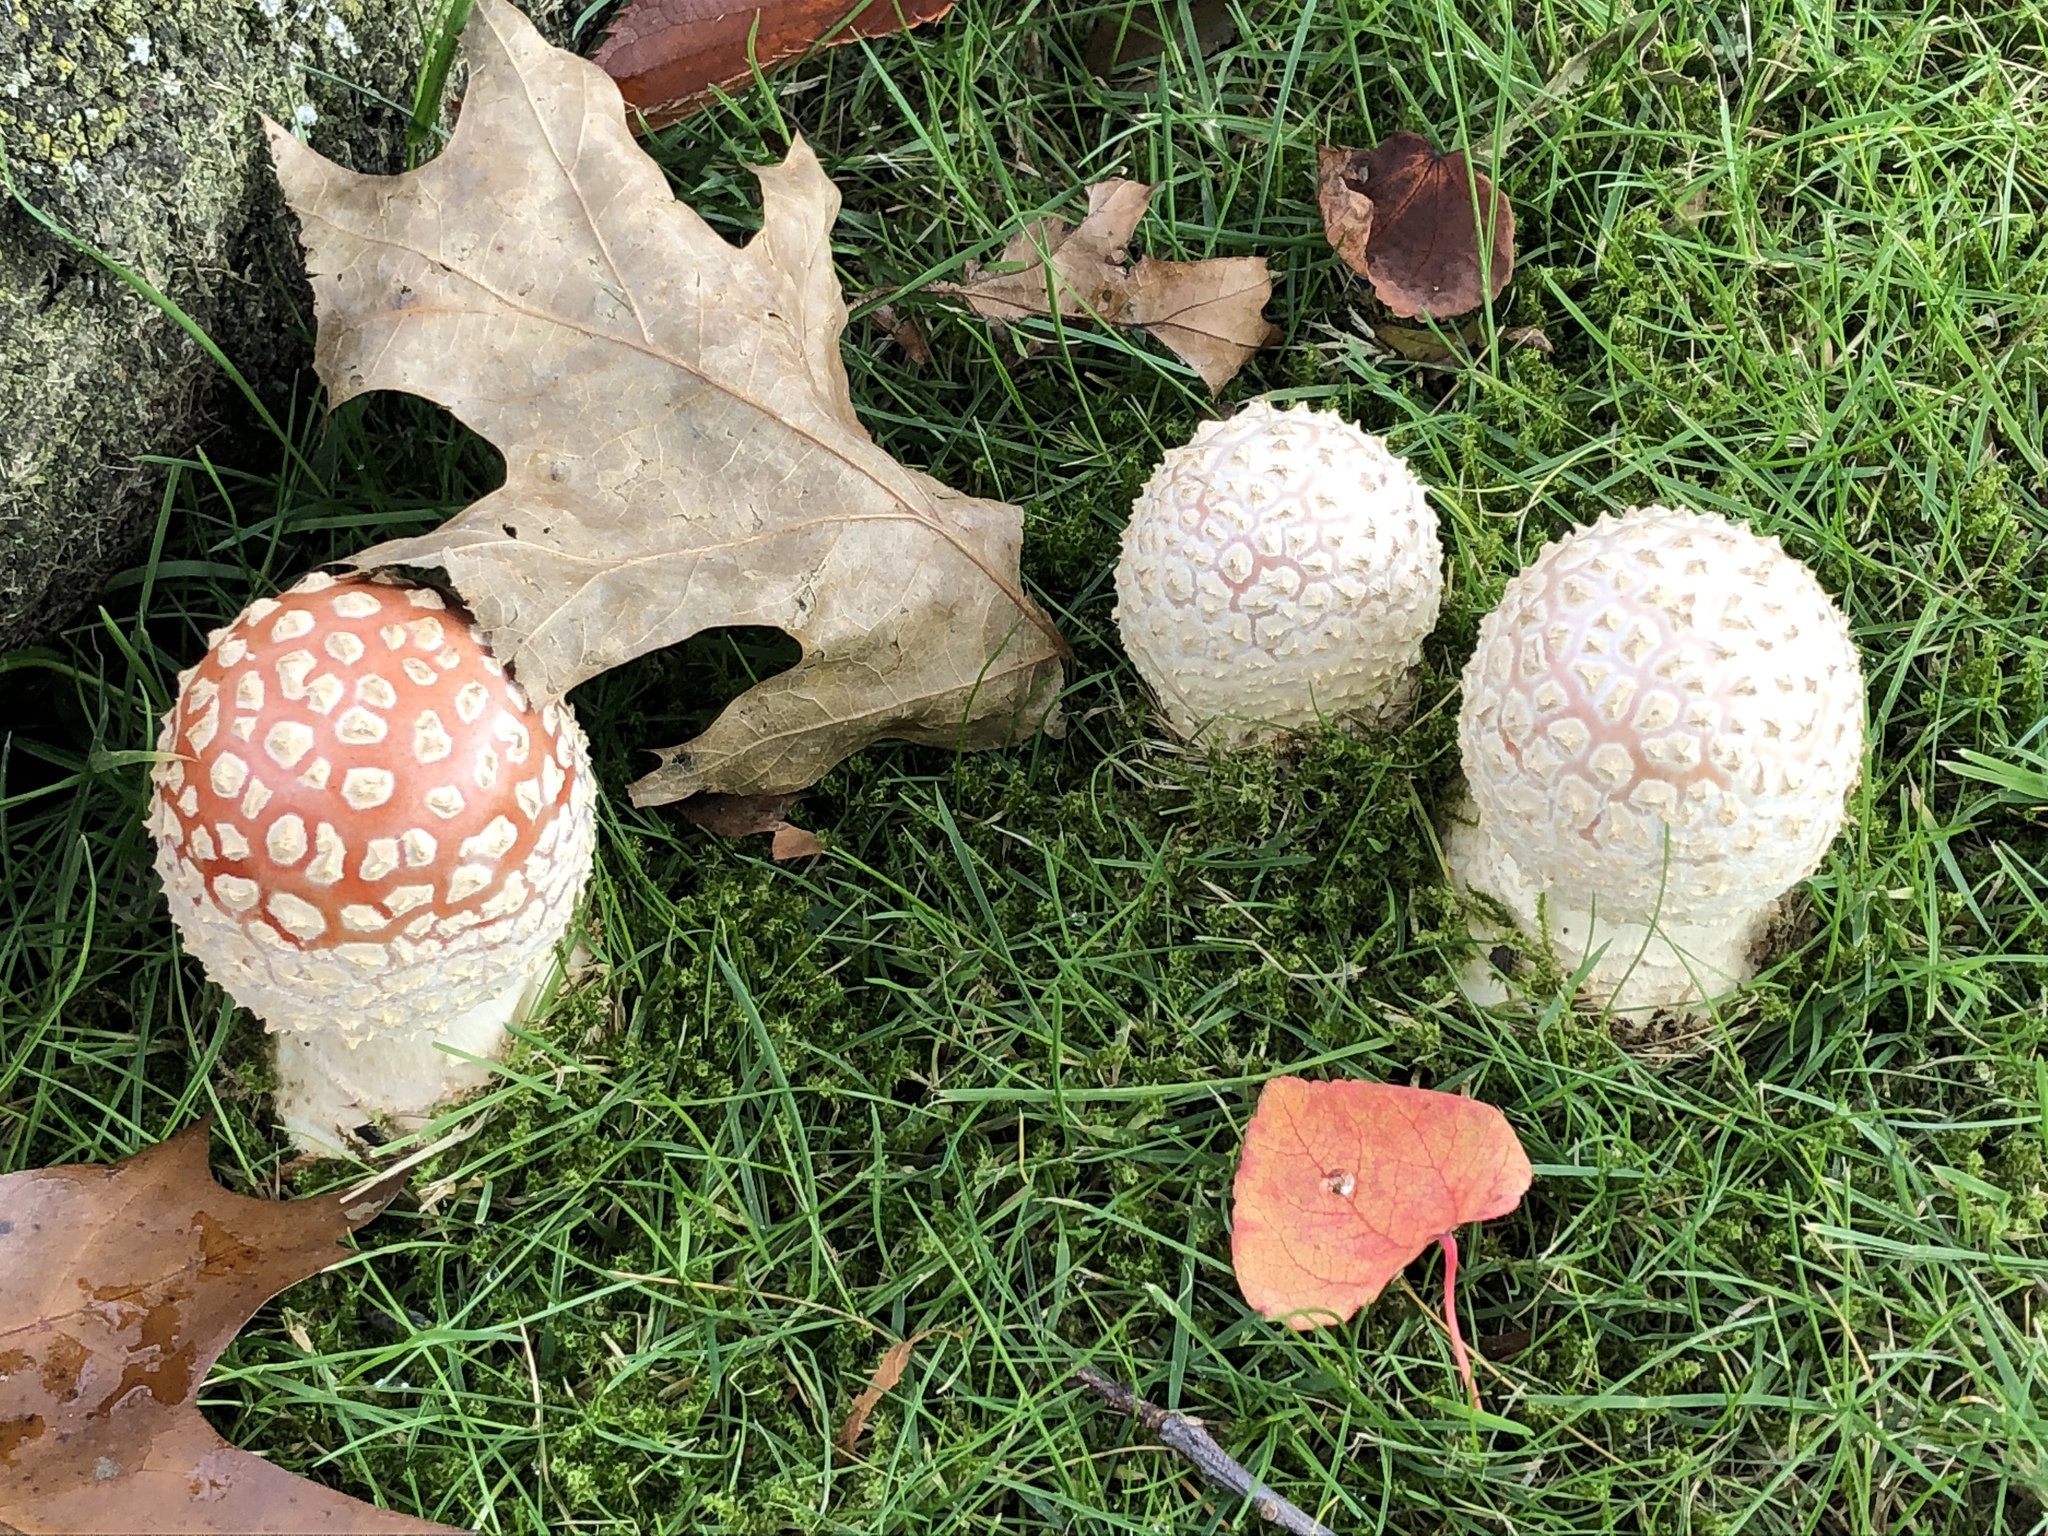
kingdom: Fungi
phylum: Basidiomycota
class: Agaricomycetes
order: Agaricales
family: Amanitaceae
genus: Amanita
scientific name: Amanita muscaria
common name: Fly agaric
